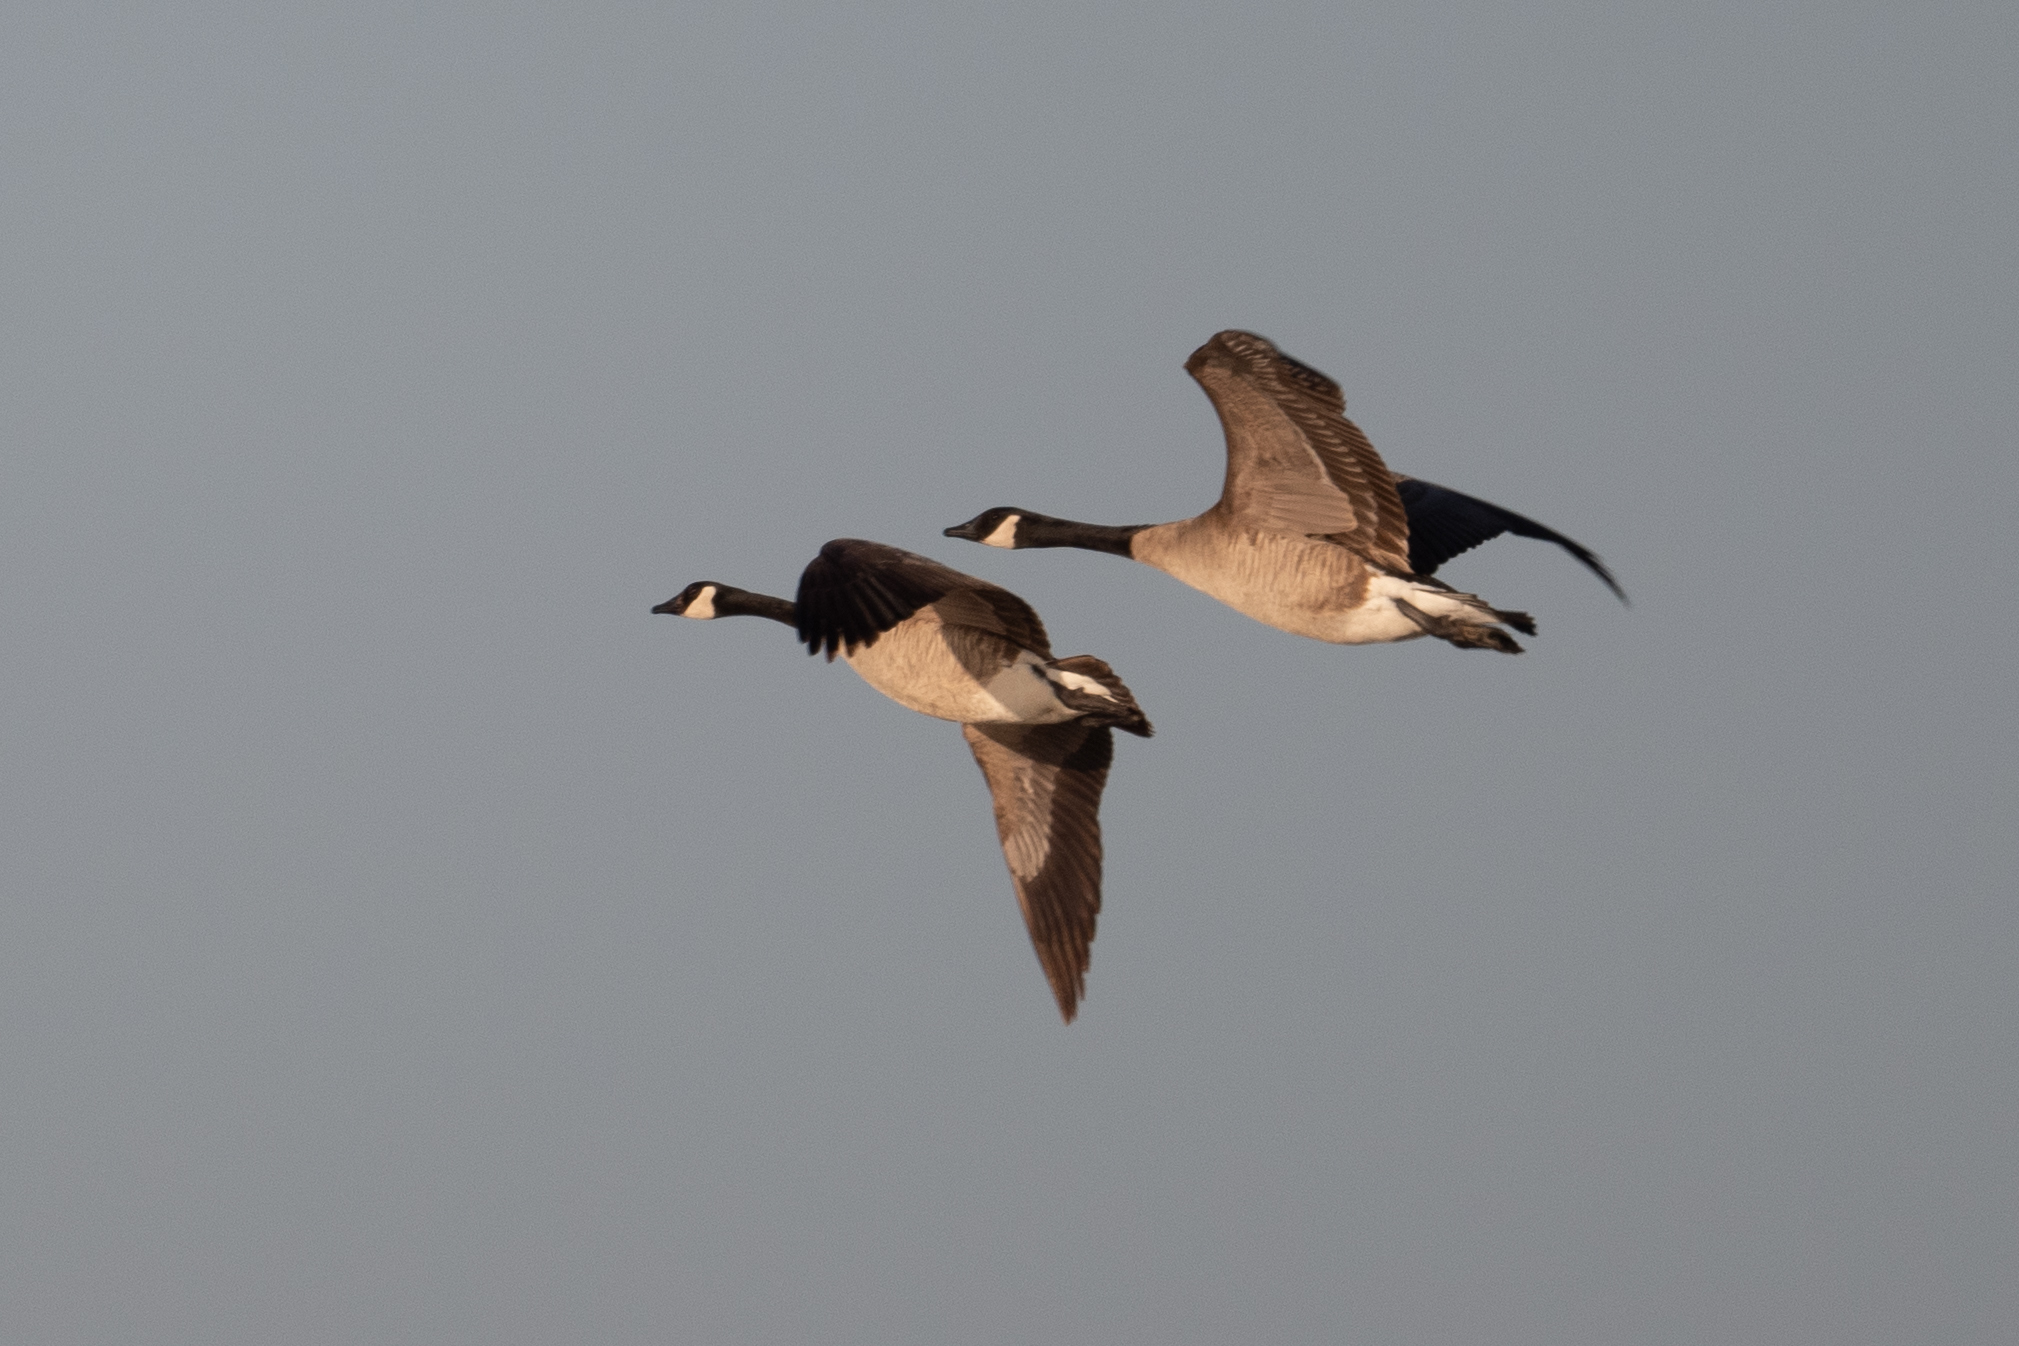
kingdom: Animalia
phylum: Chordata
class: Aves
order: Anseriformes
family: Anatidae
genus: Branta
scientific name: Branta canadensis
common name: Canada goose
